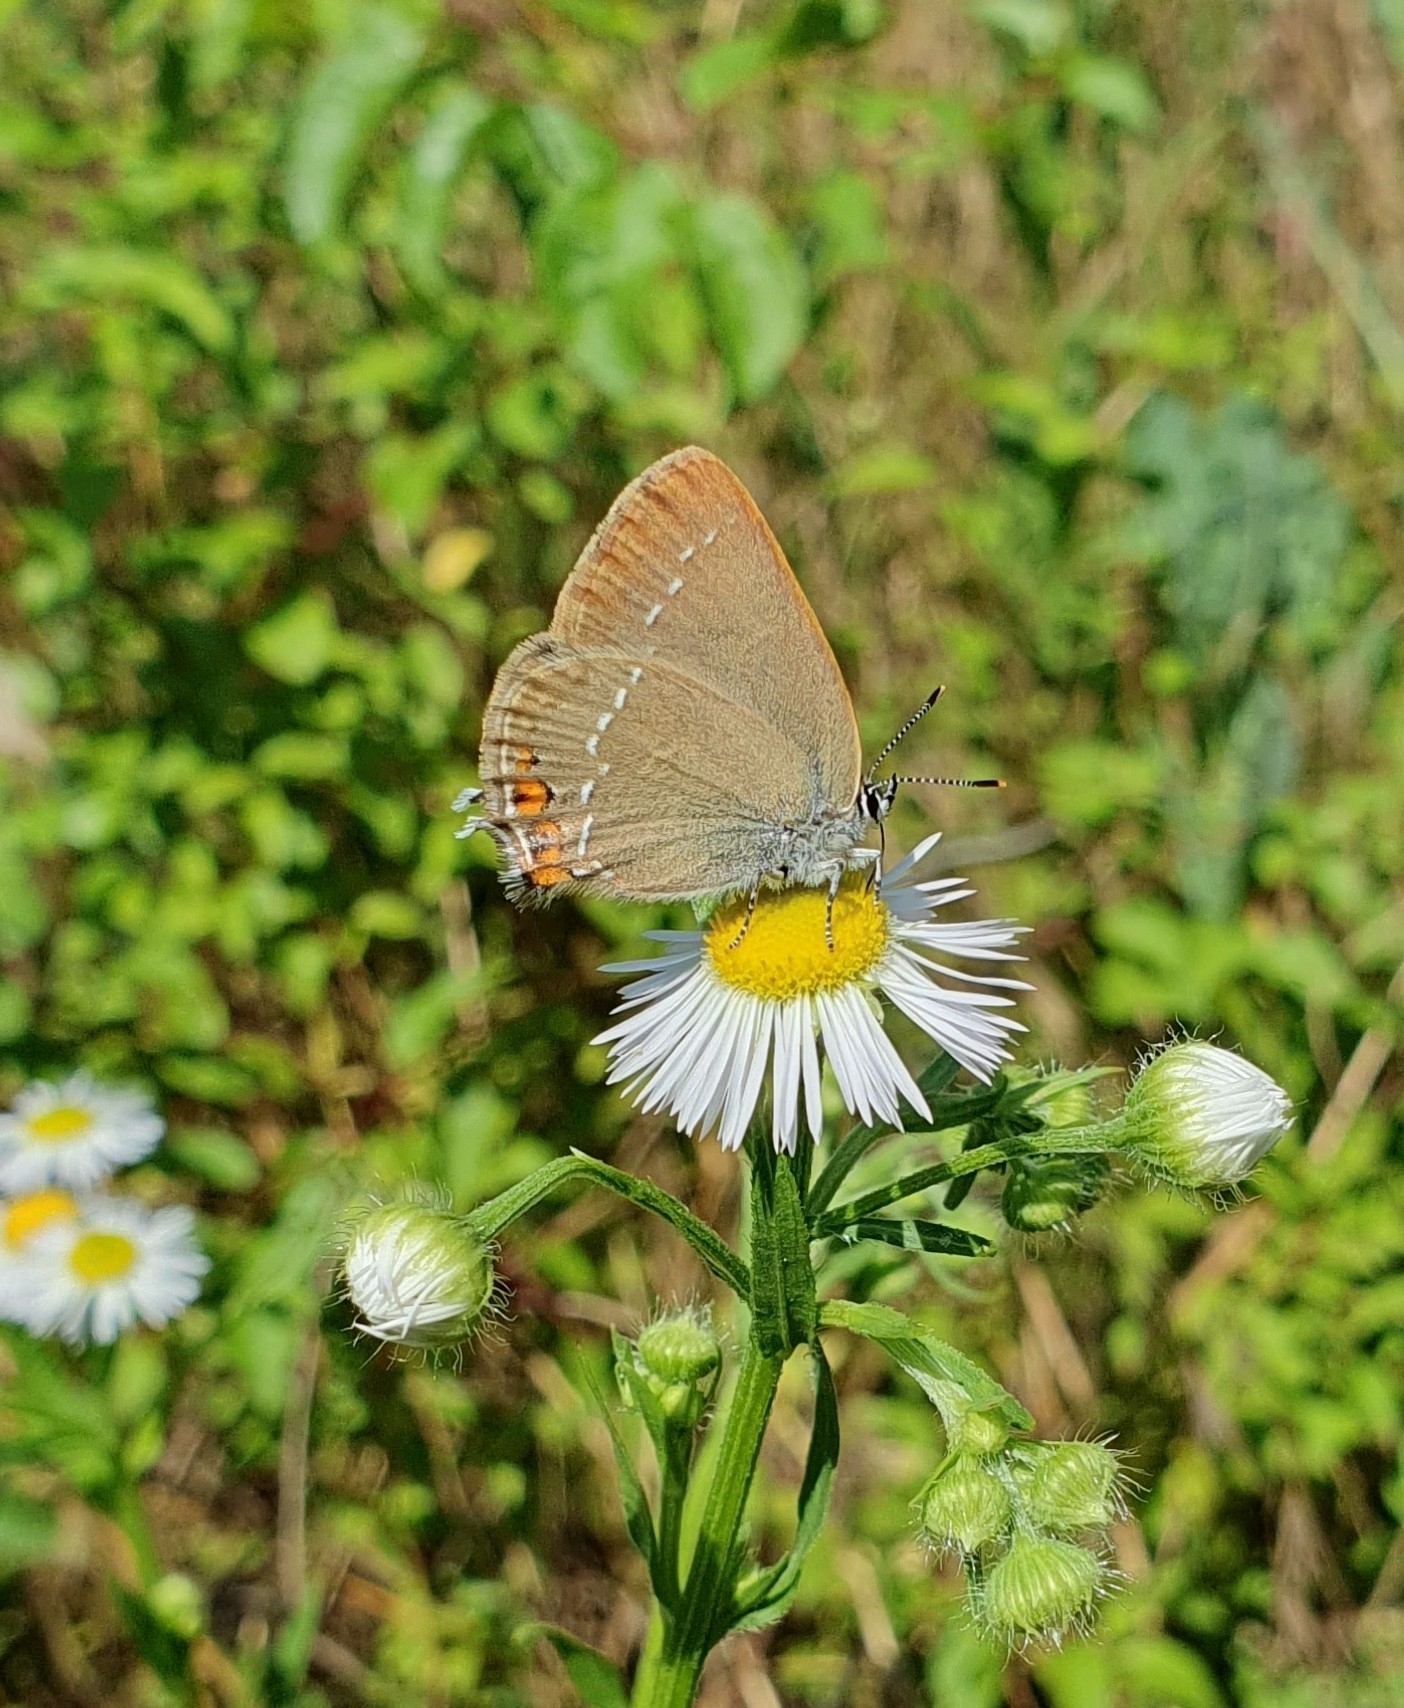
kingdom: Animalia
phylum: Arthropoda
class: Insecta
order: Lepidoptera
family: Lycaenidae
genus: Strymon
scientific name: Strymon acaciae
